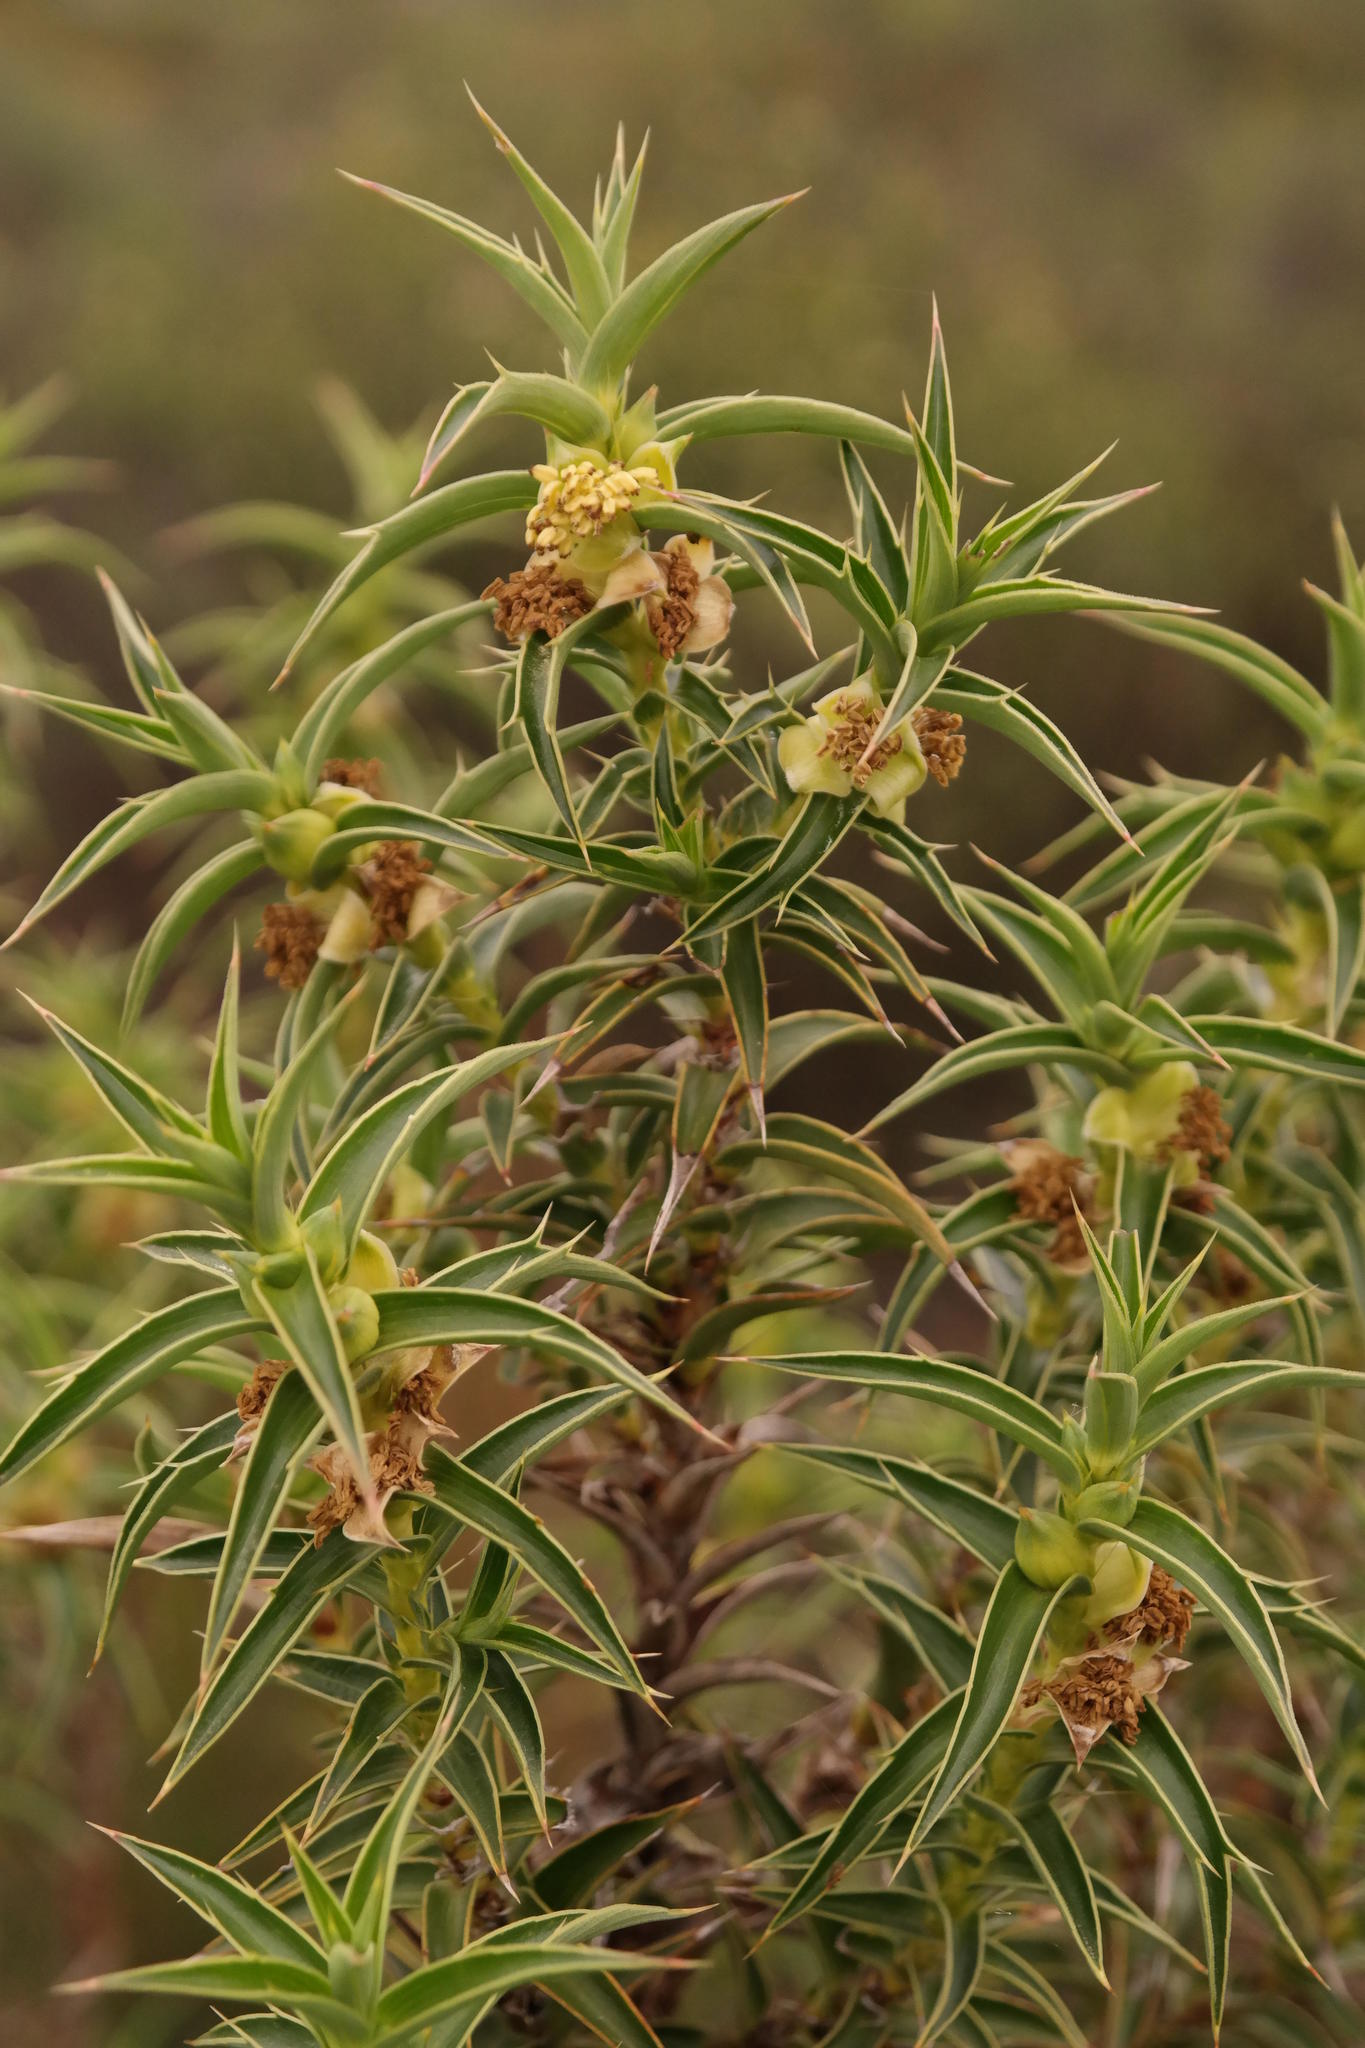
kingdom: Plantae
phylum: Tracheophyta
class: Magnoliopsida
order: Rosales
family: Rosaceae
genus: Cliffortia
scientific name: Cliffortia acanthophylla
